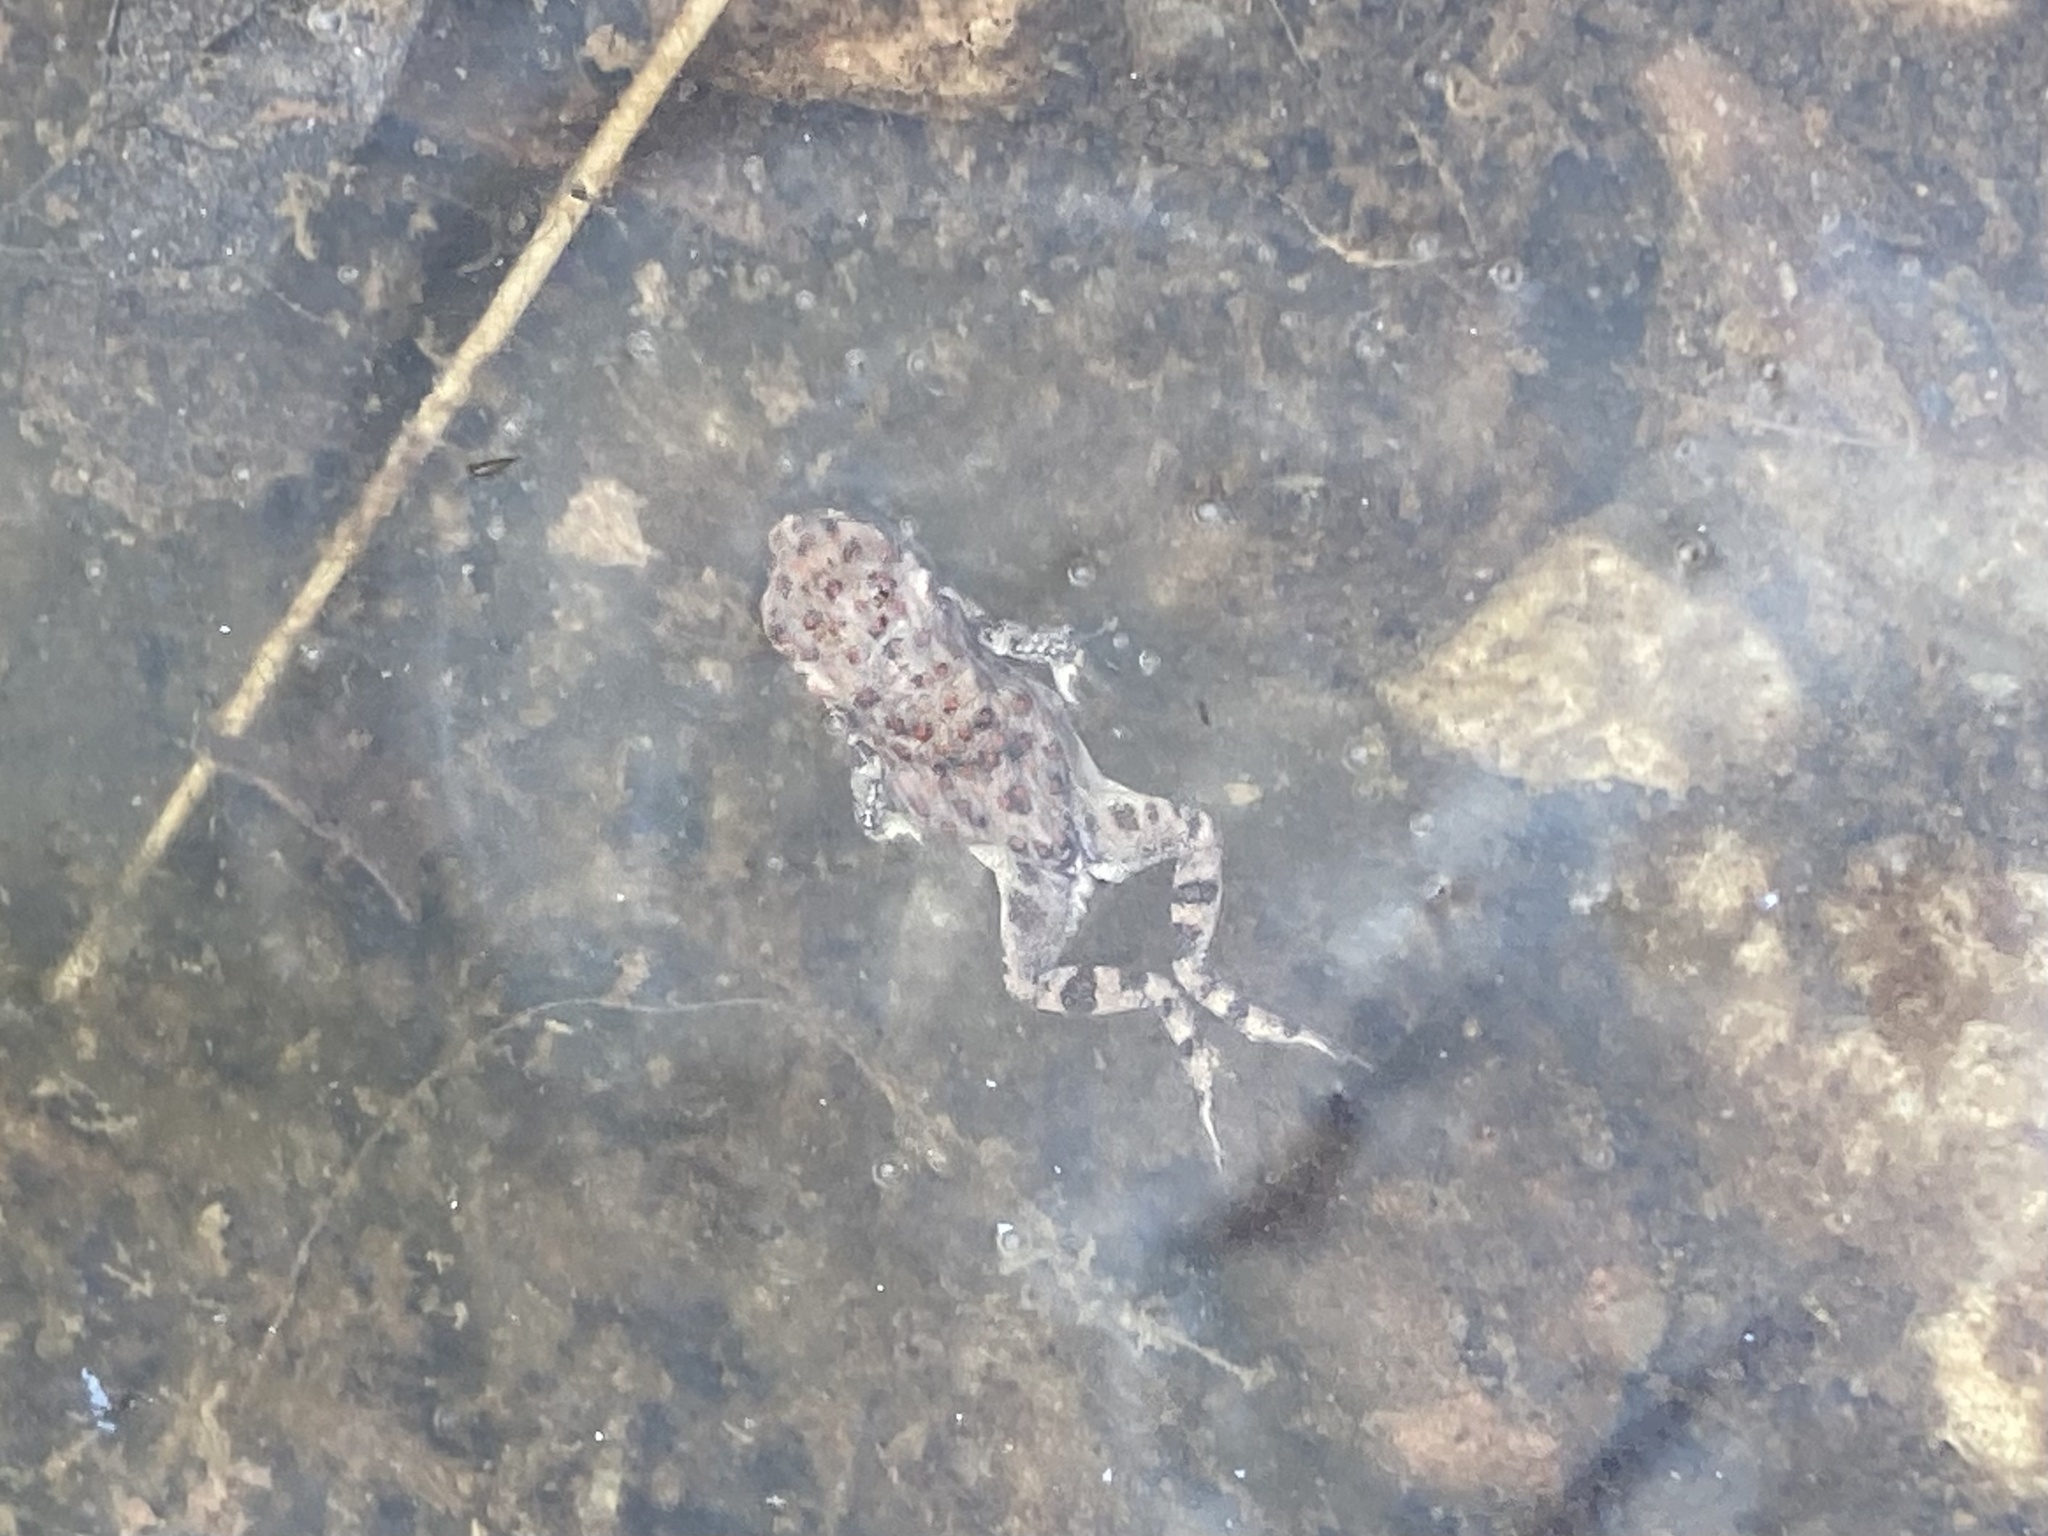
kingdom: Animalia
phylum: Chordata
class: Amphibia
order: Anura
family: Bufonidae
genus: Anaxyrus
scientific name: Anaxyrus punctatus
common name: Red-spotted toad
